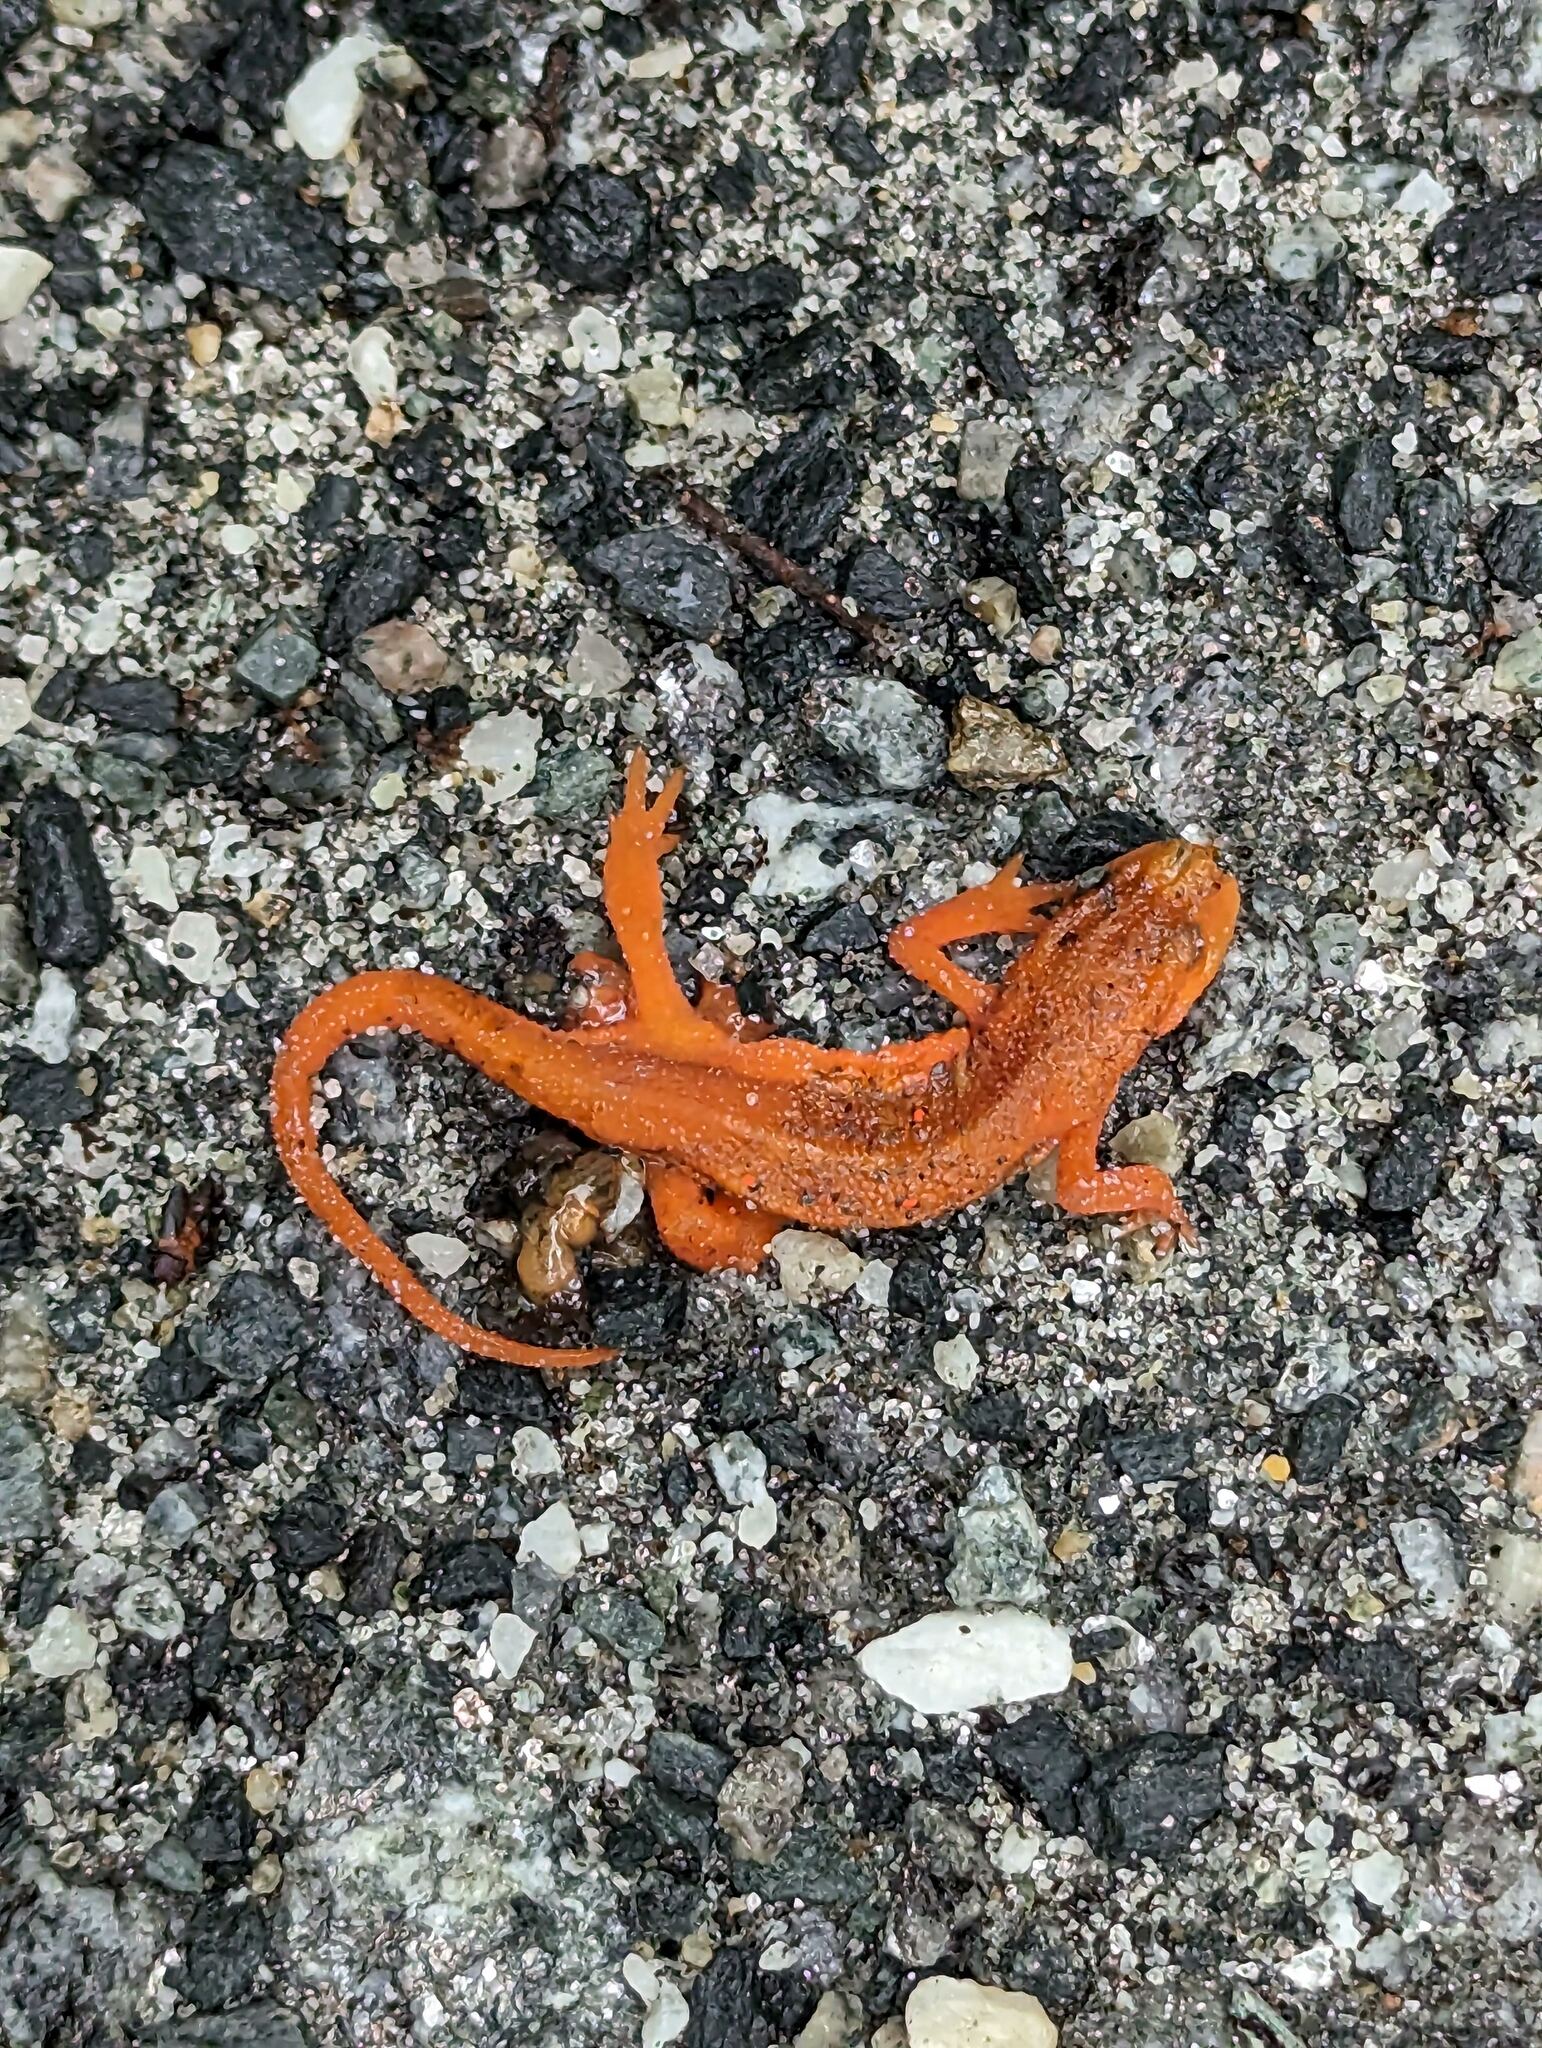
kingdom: Animalia
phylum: Chordata
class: Amphibia
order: Caudata
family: Salamandridae
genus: Notophthalmus
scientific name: Notophthalmus viridescens
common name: Eastern newt
